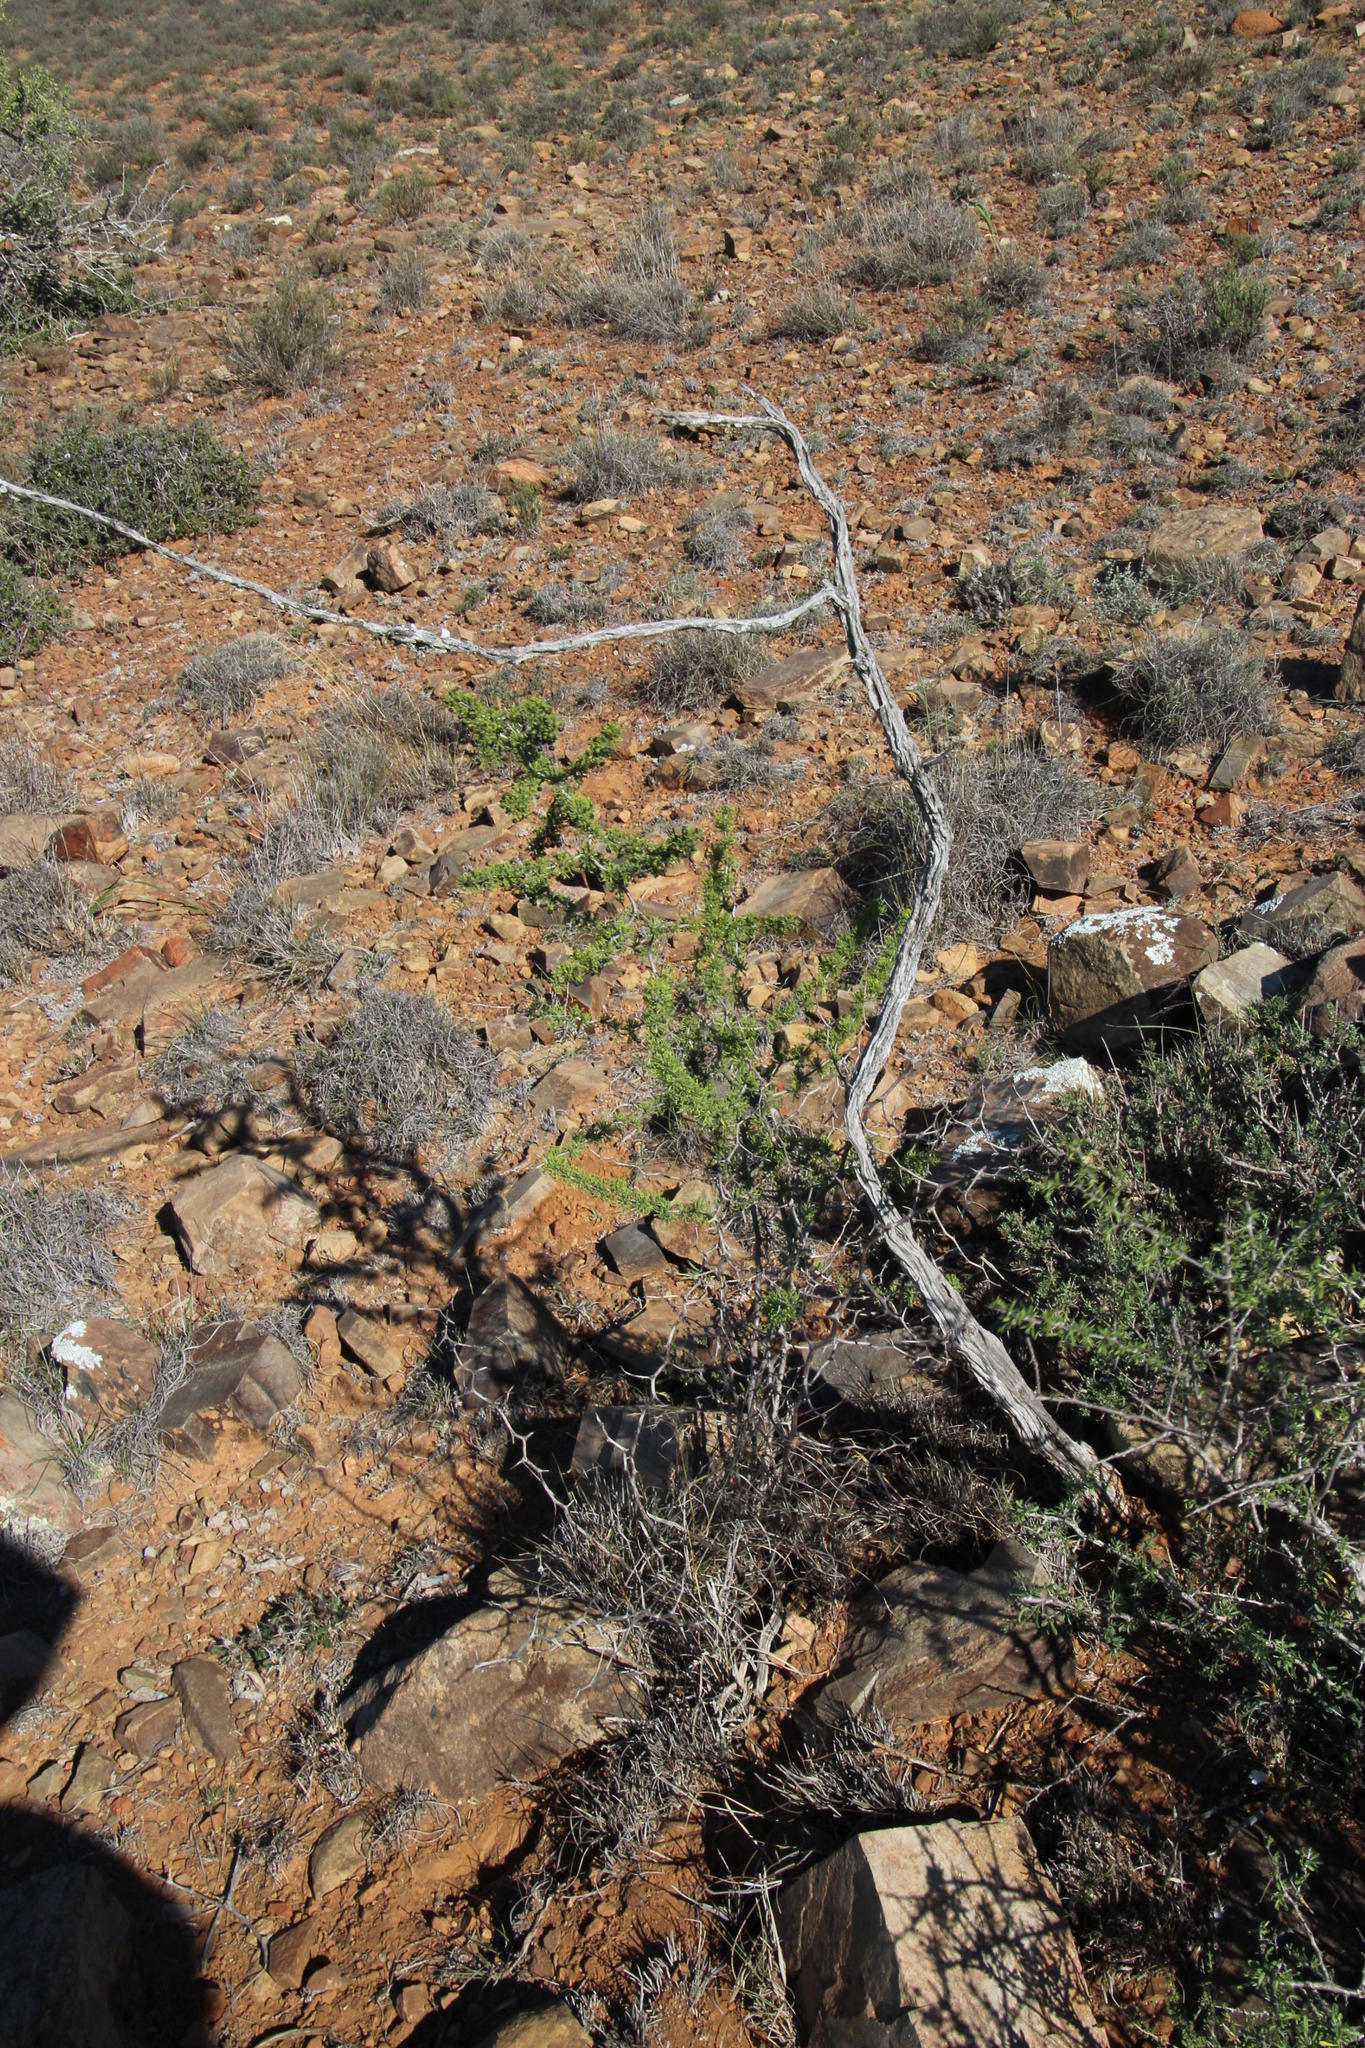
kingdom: Plantae
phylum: Tracheophyta
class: Liliopsida
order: Asparagales
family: Asparagaceae
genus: Asparagus
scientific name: Asparagus burchellii
